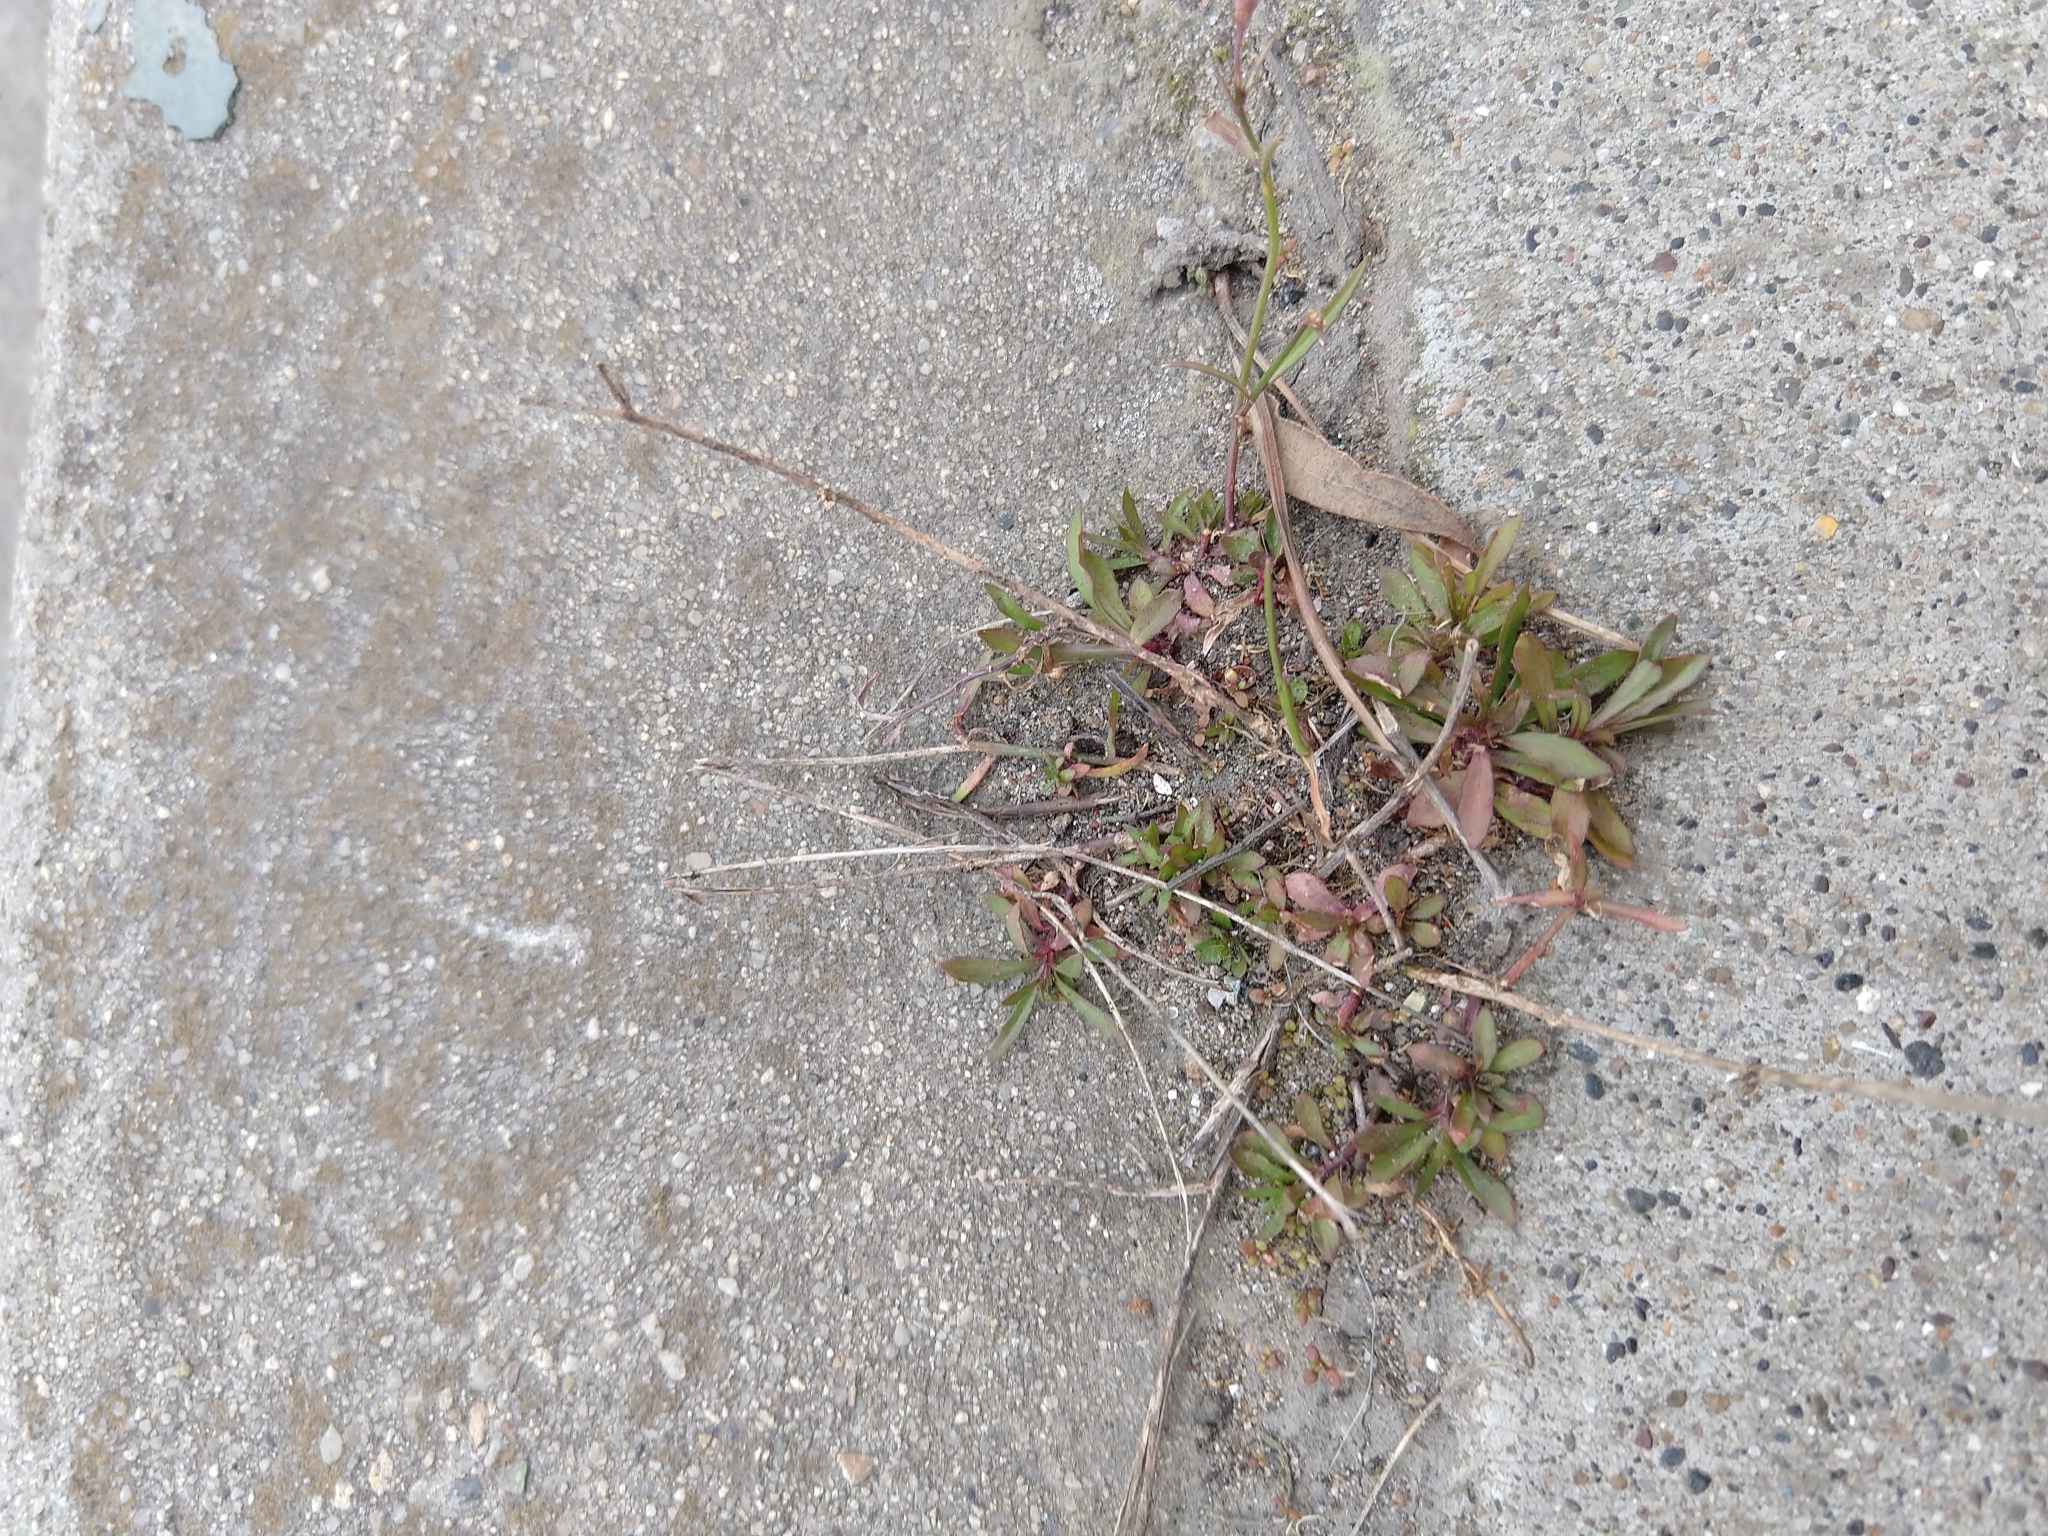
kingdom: Plantae
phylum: Tracheophyta
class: Magnoliopsida
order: Asterales
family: Campanulaceae
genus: Wahlenbergia
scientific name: Wahlenbergia marginata
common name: Southern rockbell
